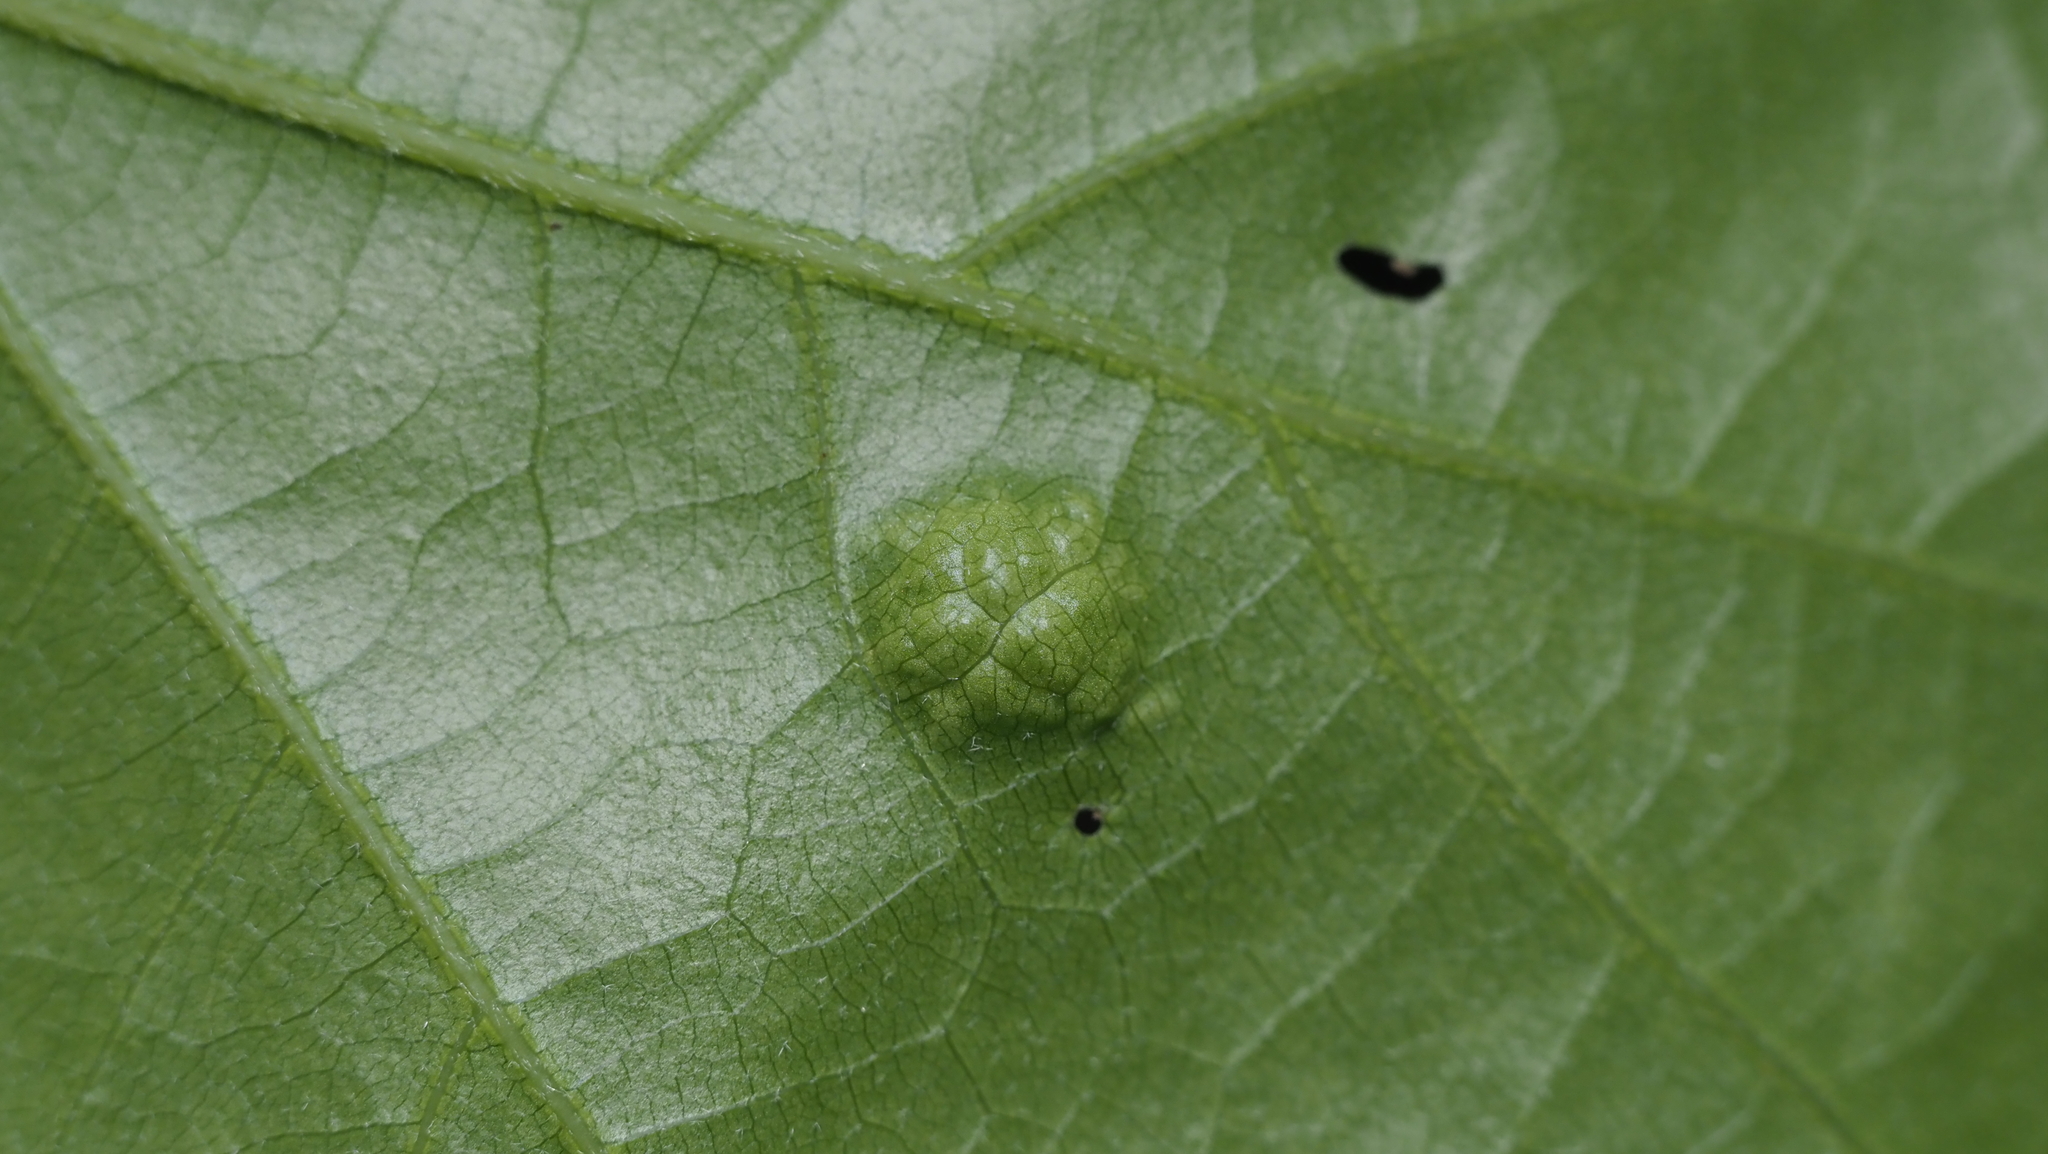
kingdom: Fungi
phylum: Ascomycota
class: Taphrinomycetes
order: Taphrinales
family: Taphrinaceae
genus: Taphrina
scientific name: Taphrina caerulescens
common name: Oak leaf blister
